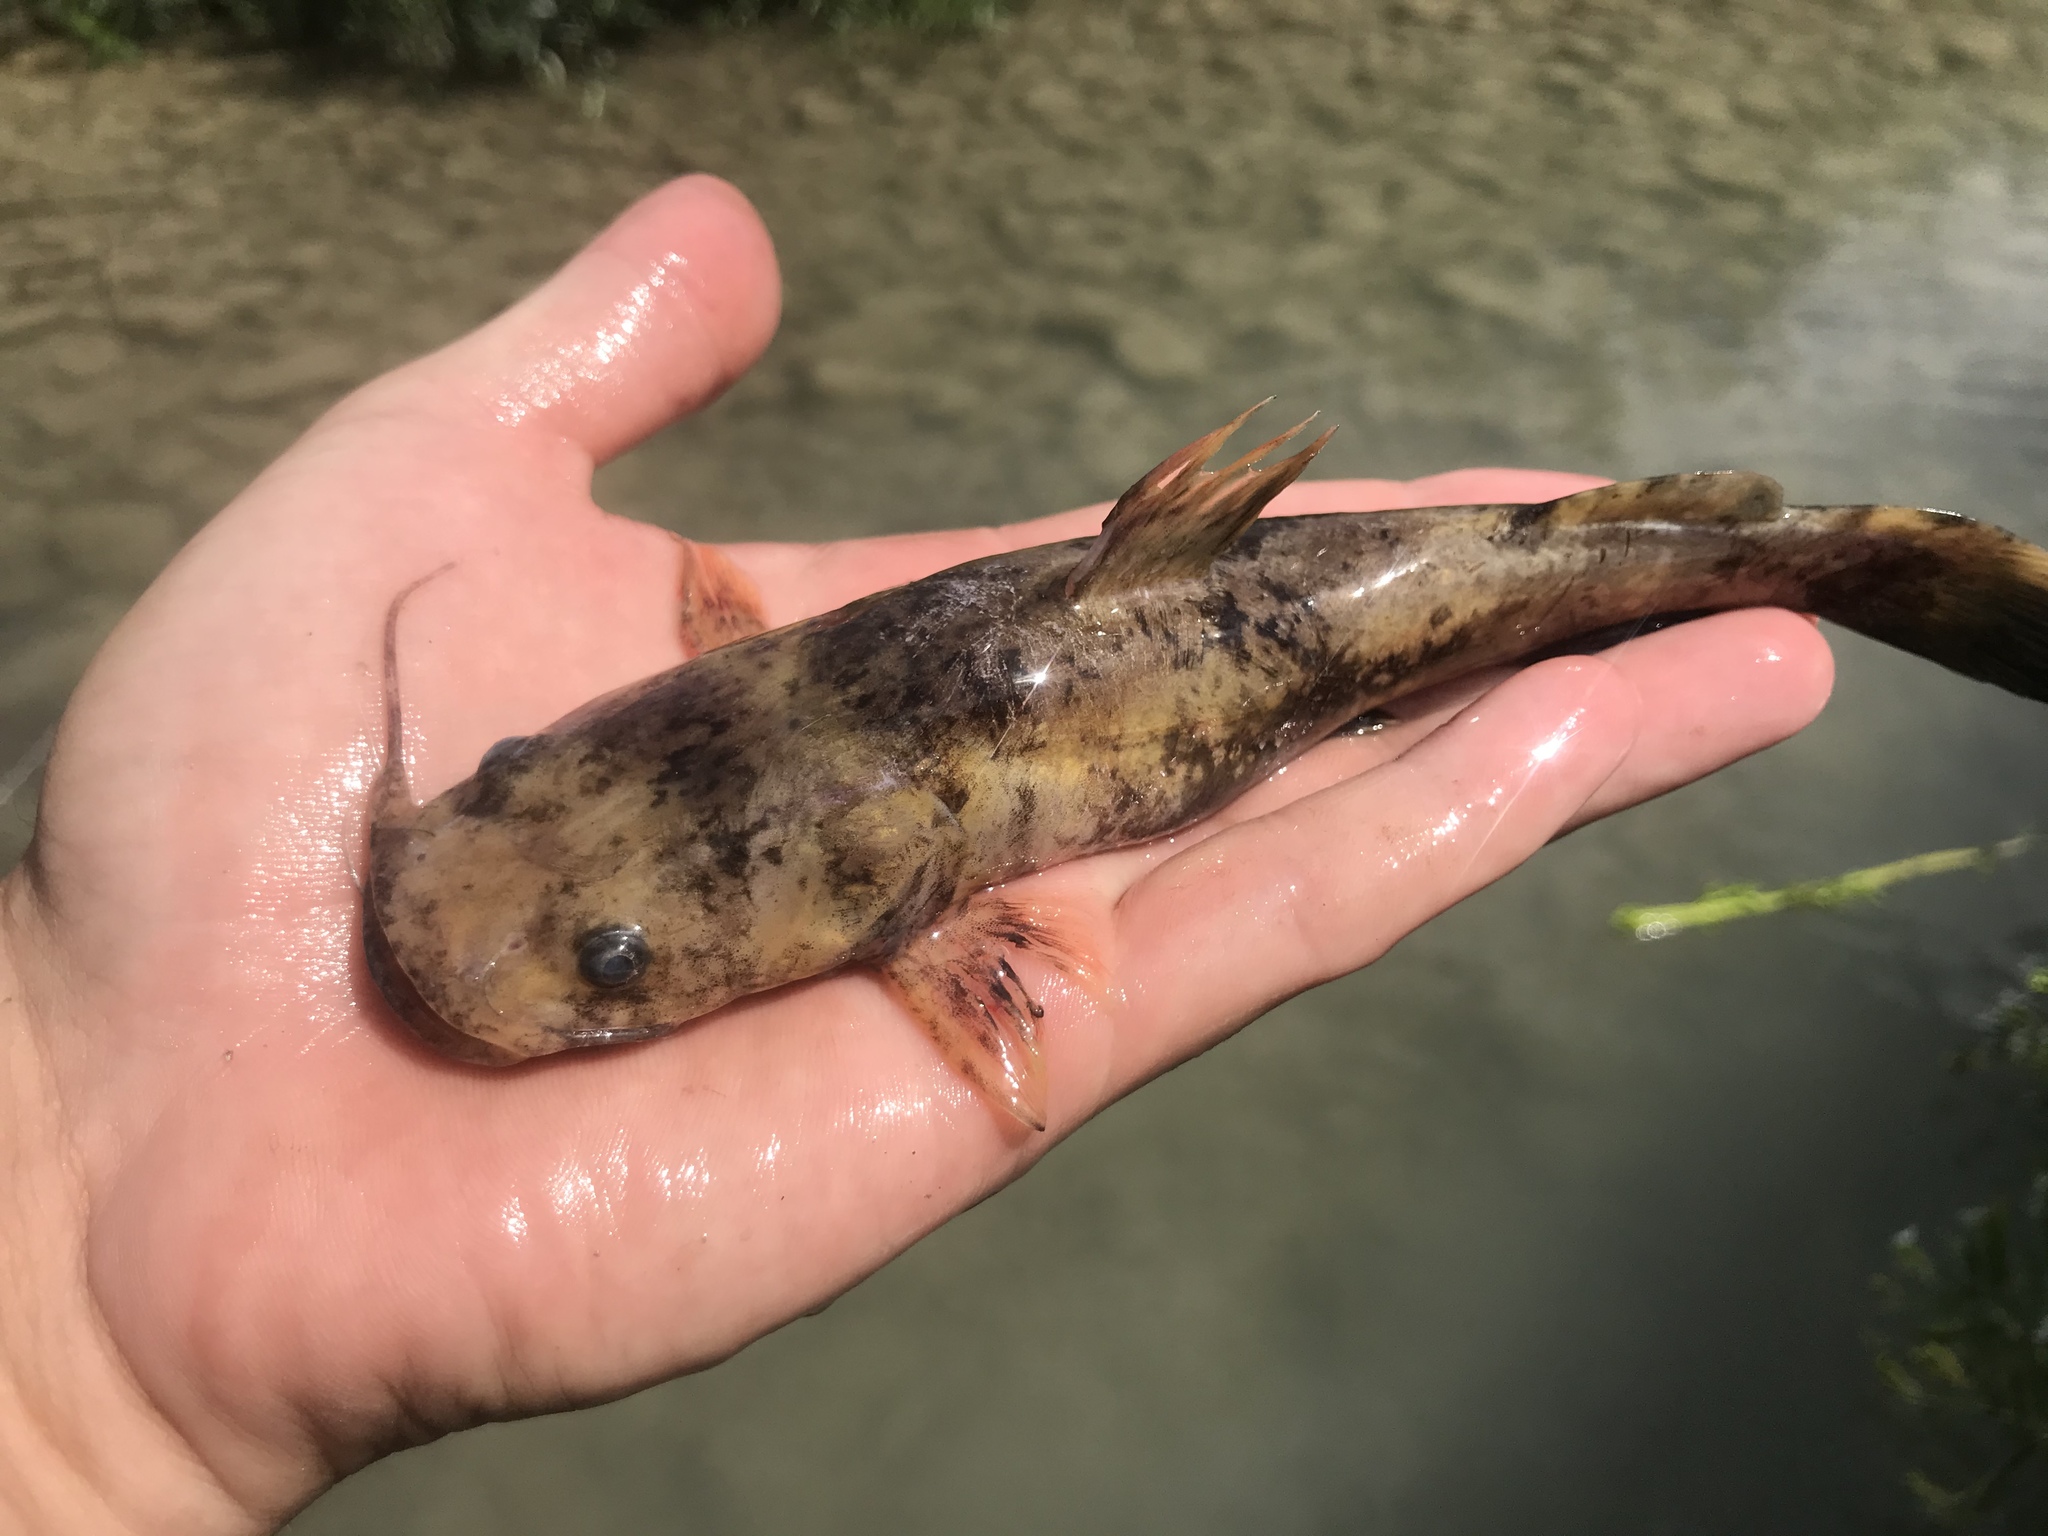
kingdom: Animalia
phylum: Chordata
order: Siluriformes
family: Ictaluridae
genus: Pylodictis
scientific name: Pylodictis olivaris
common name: Flathead catfish
